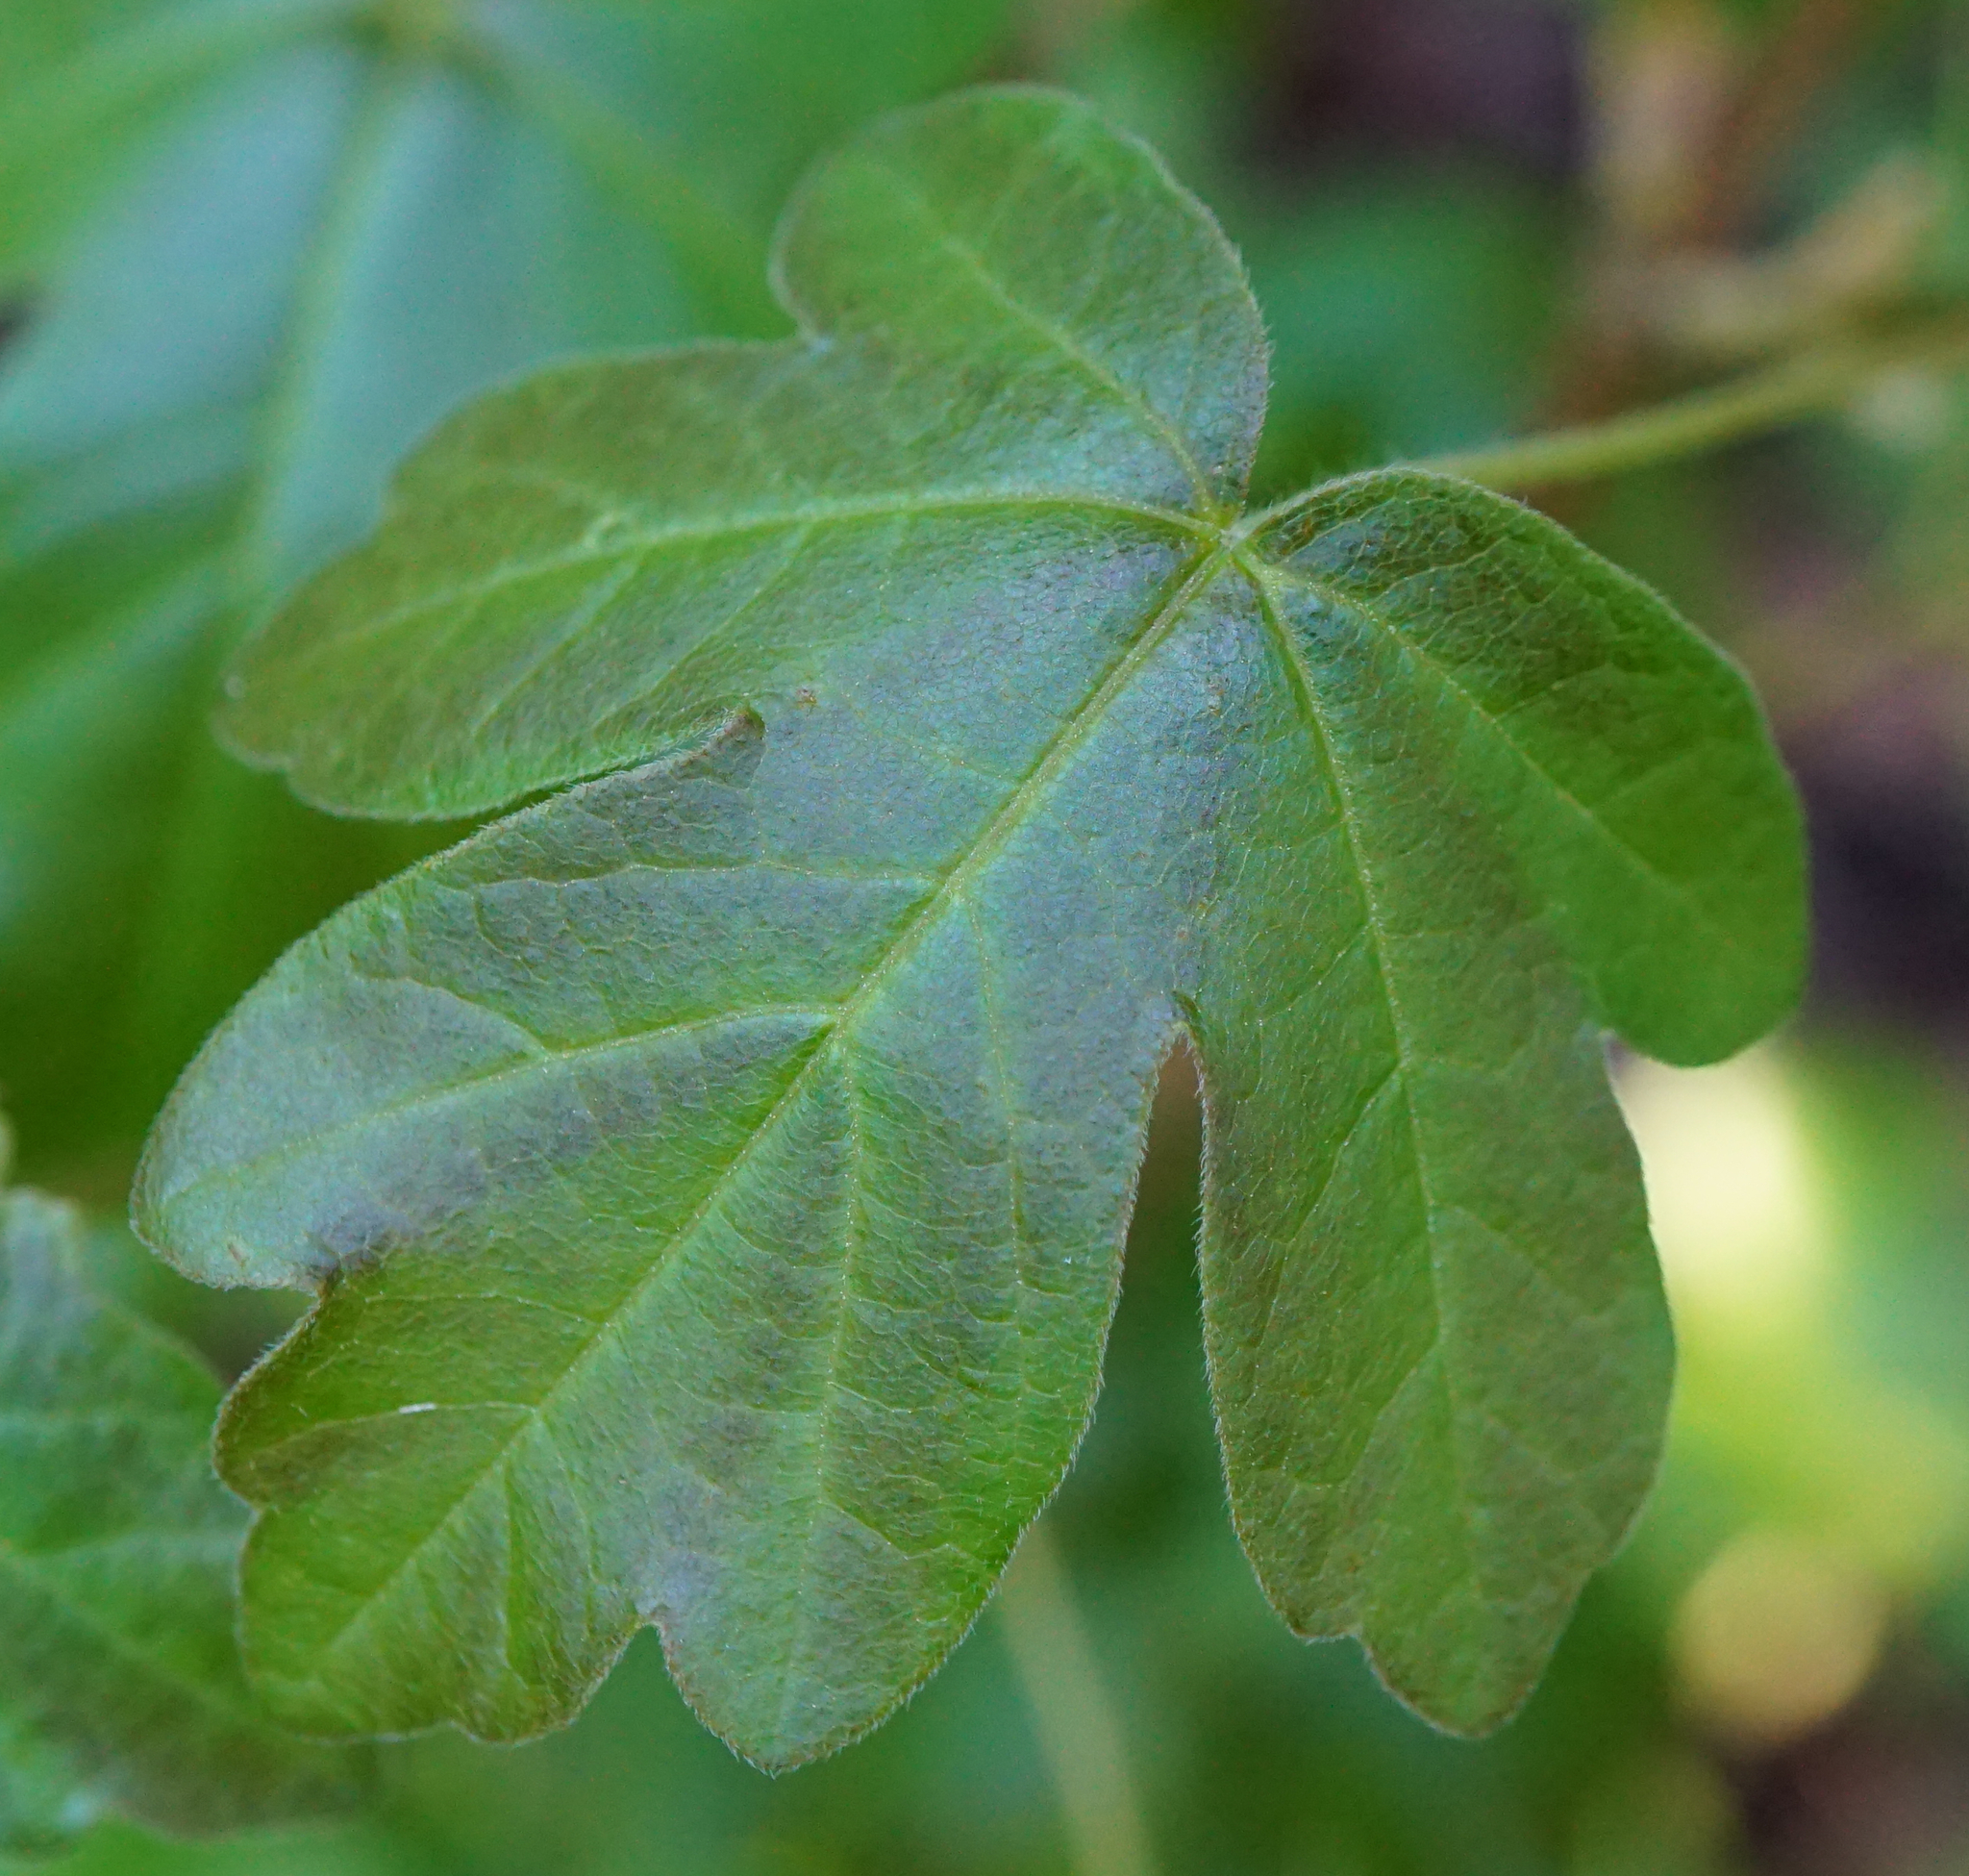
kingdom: Plantae
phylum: Tracheophyta
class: Magnoliopsida
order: Sapindales
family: Sapindaceae
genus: Acer
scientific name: Acer campestre
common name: Field maple
